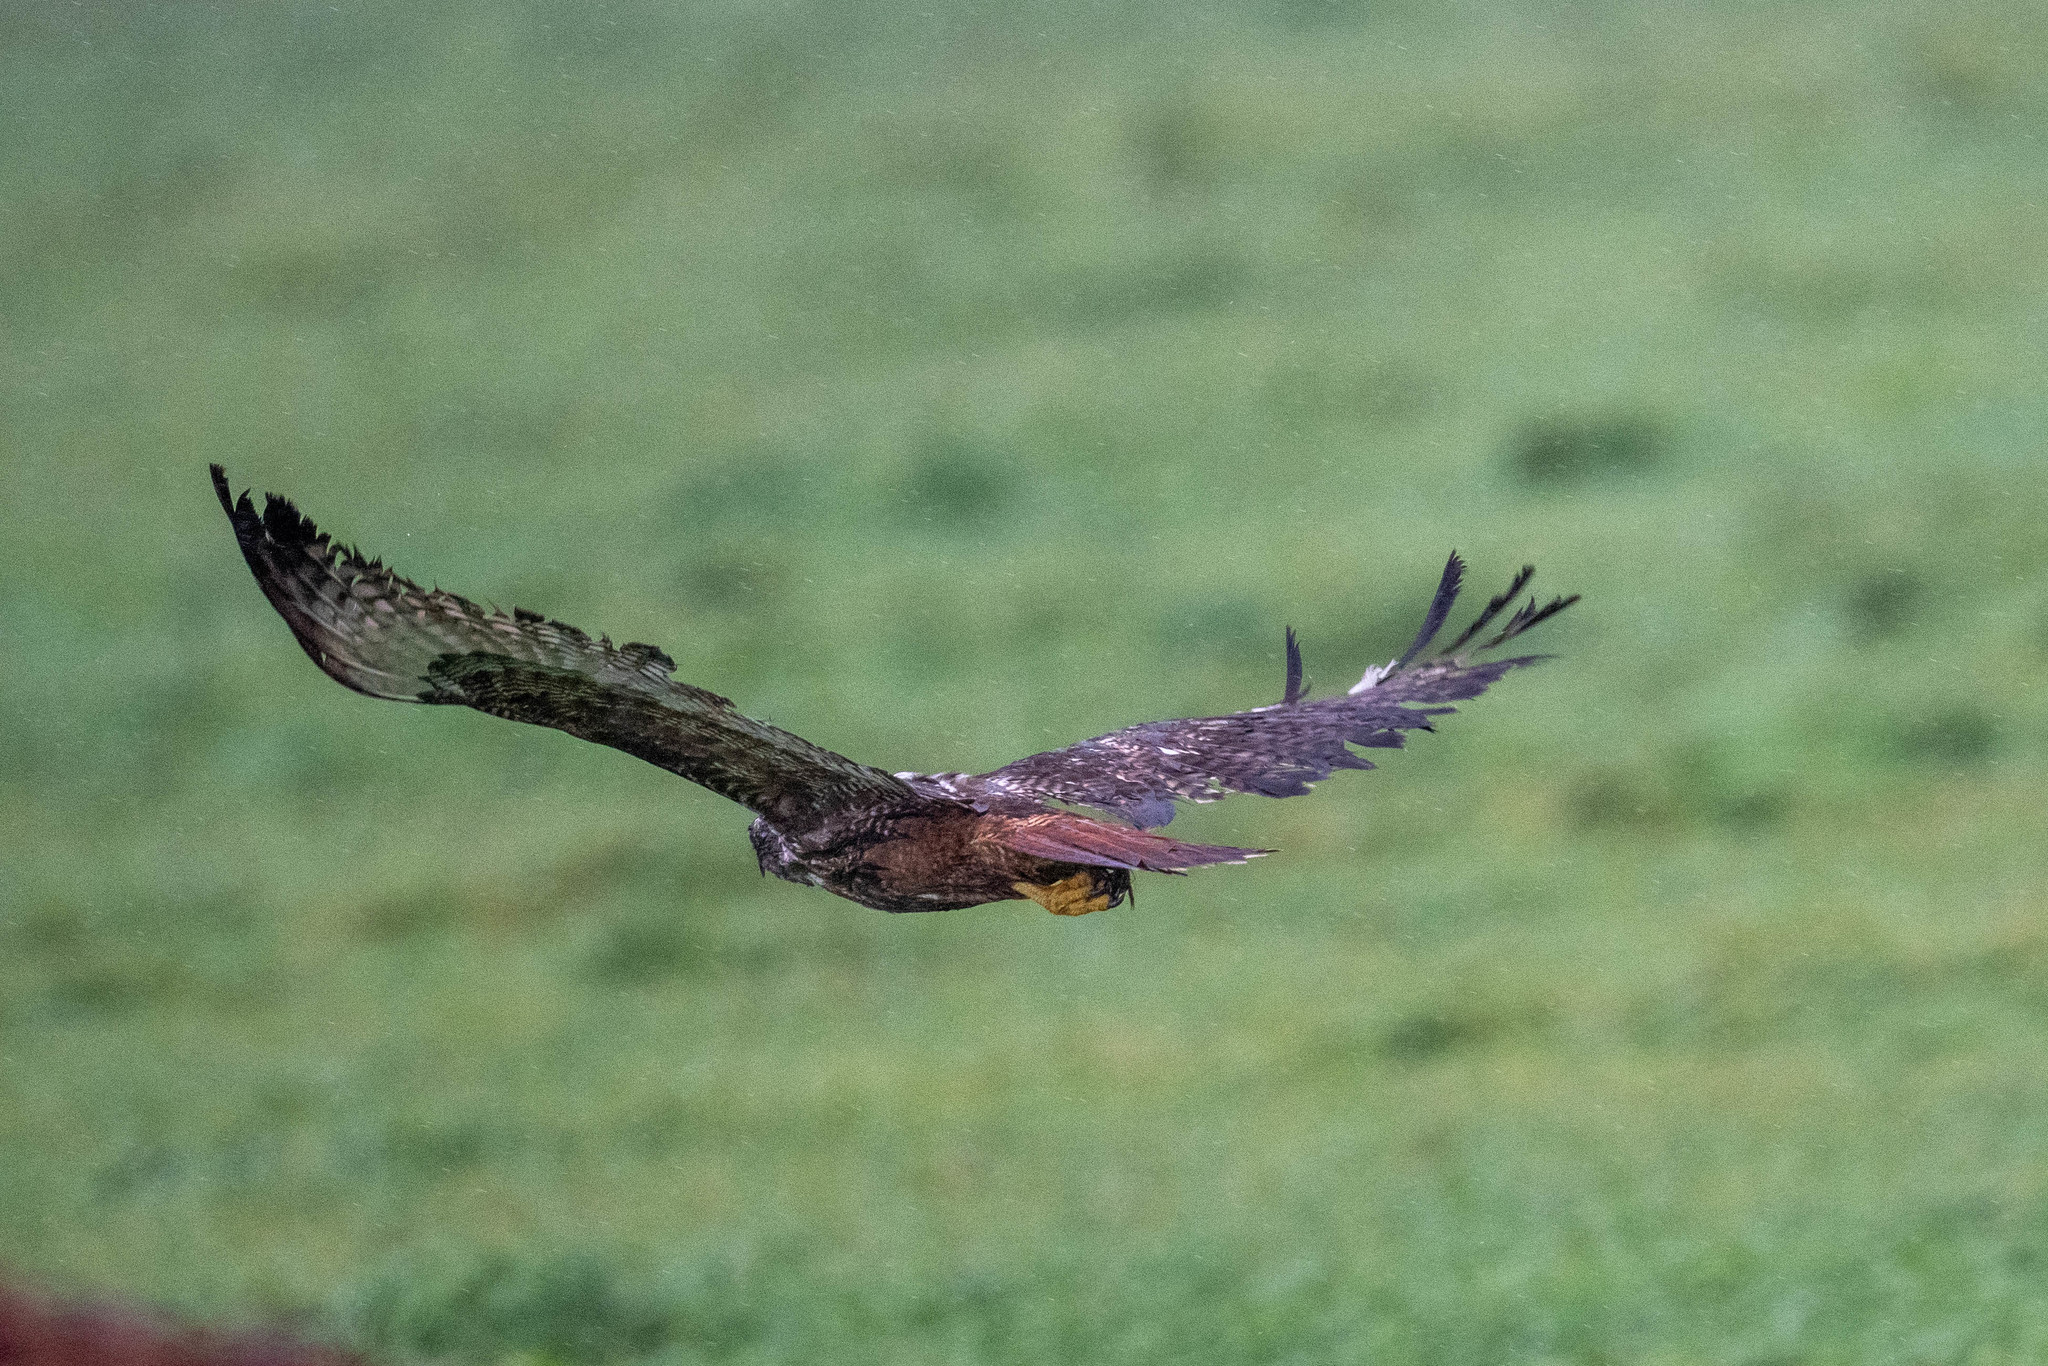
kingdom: Animalia
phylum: Chordata
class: Aves
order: Accipitriformes
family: Accipitridae
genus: Buteo
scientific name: Buteo jamaicensis
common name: Red-tailed hawk
